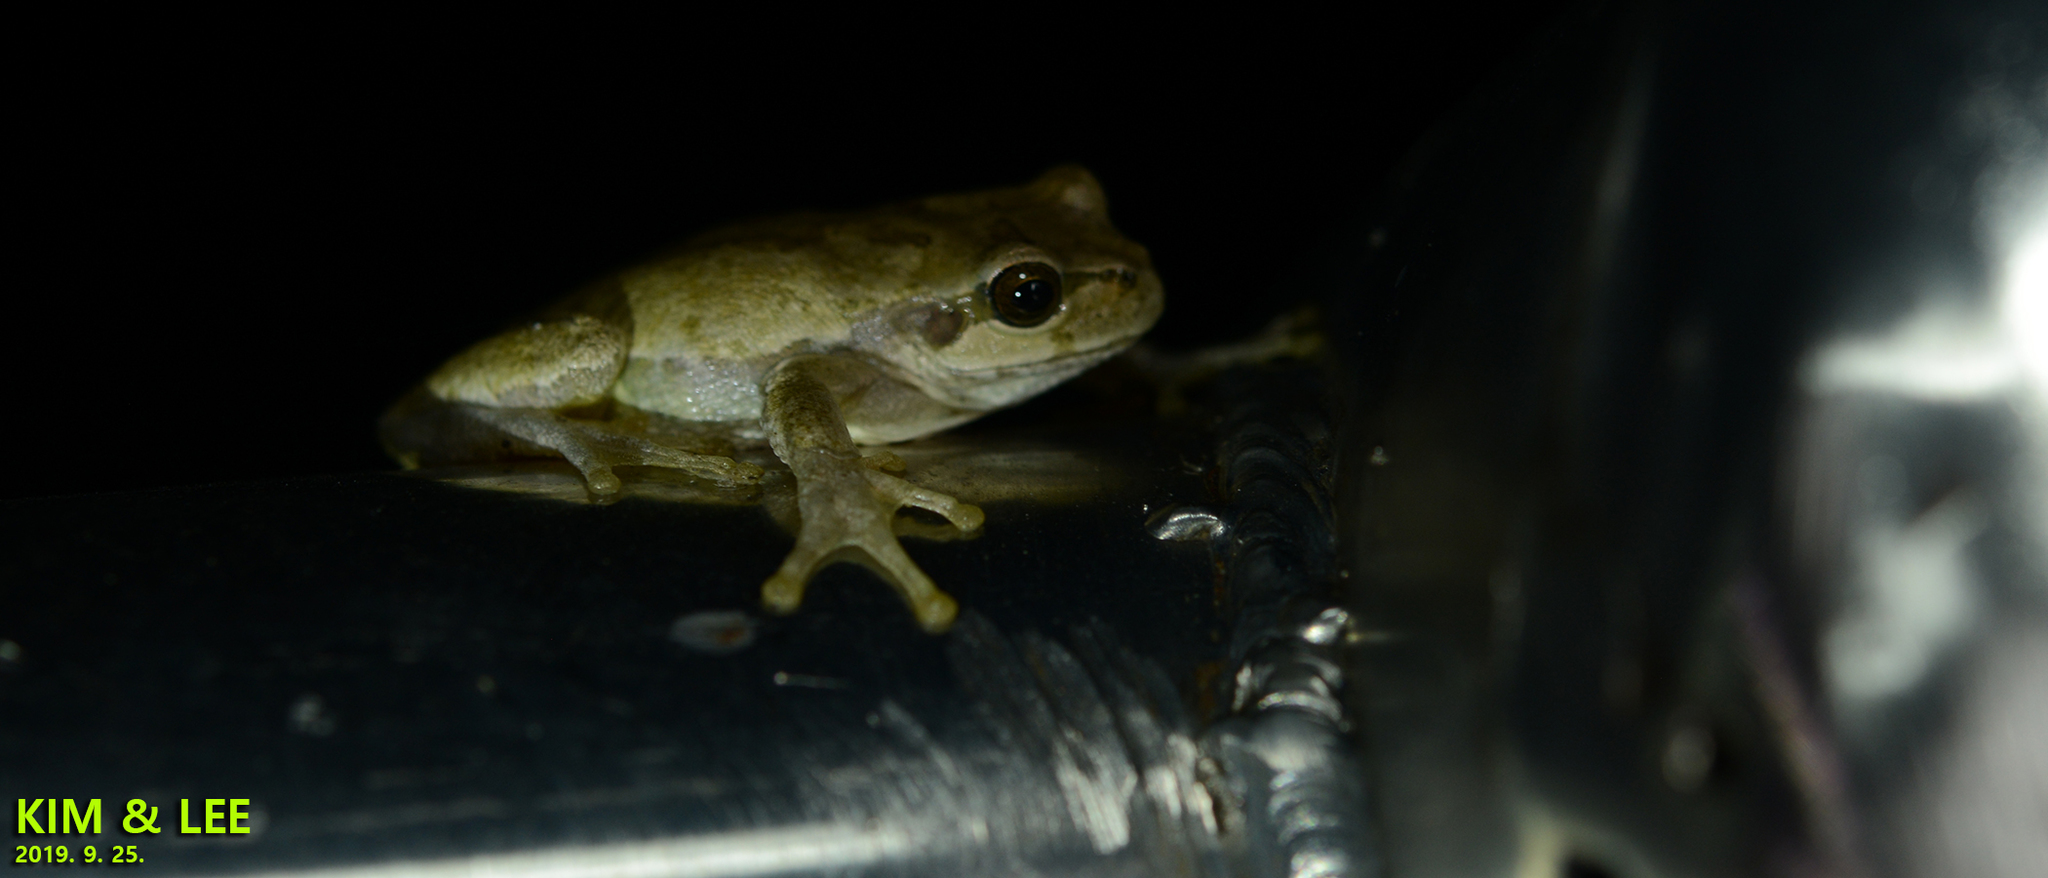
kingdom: Animalia
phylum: Chordata
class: Amphibia
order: Anura
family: Hylidae
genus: Dryophytes
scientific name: Dryophytes japonicus
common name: Japanese treefrog
